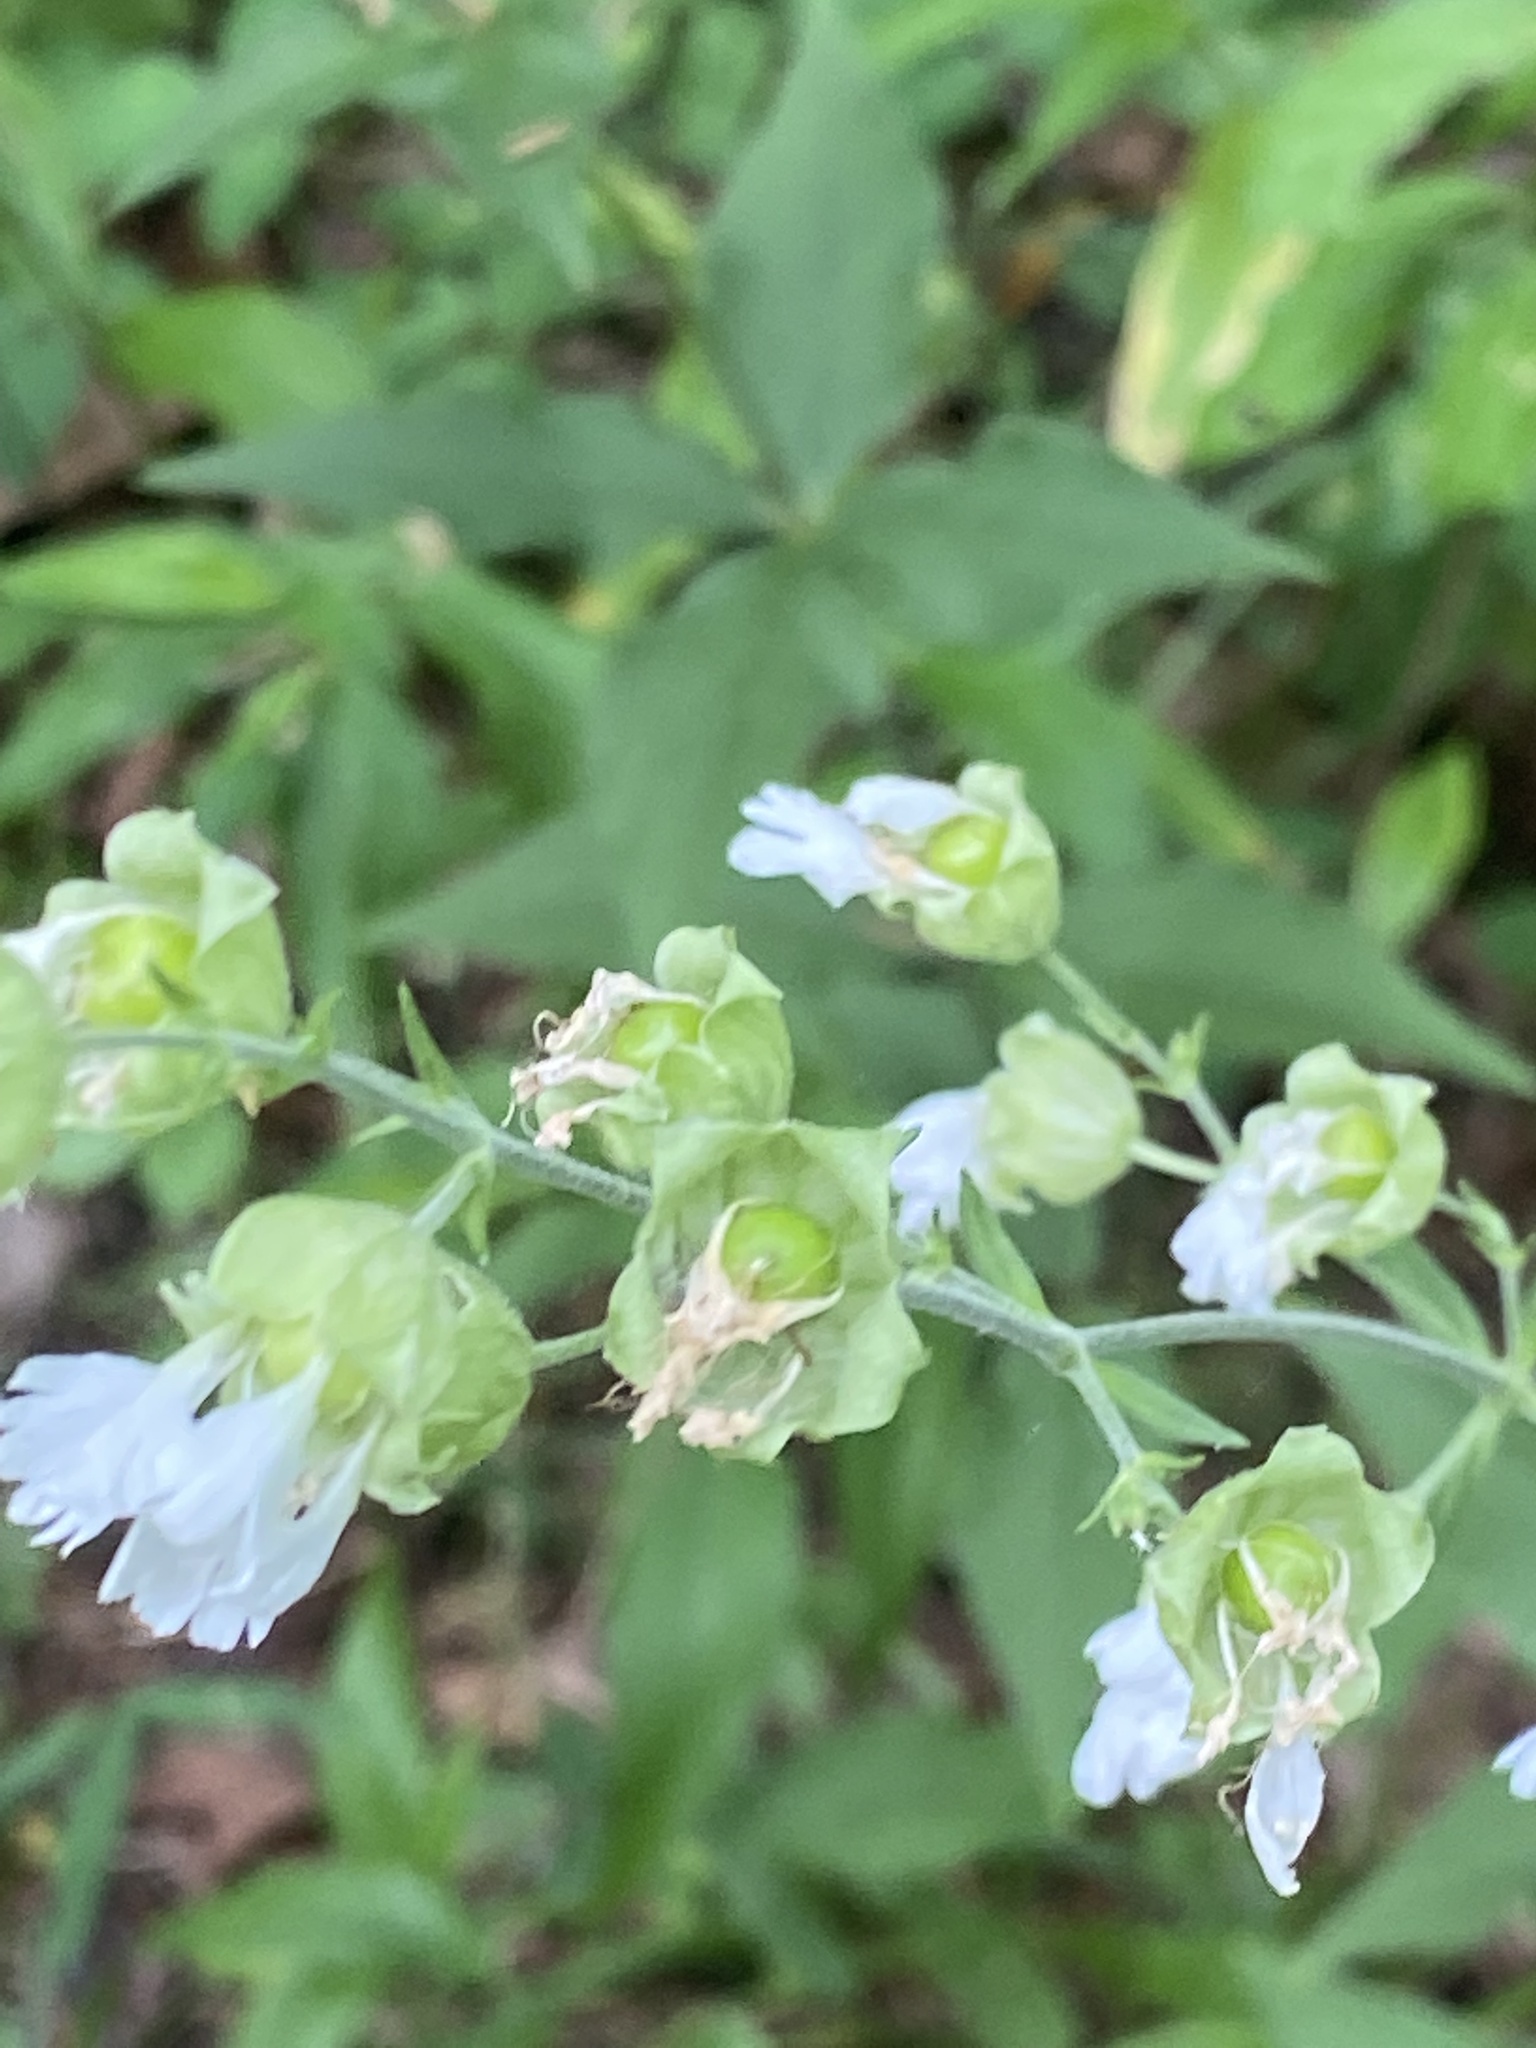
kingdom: Plantae
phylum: Tracheophyta
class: Magnoliopsida
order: Caryophyllales
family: Caryophyllaceae
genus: Silene
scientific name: Silene stellata
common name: Starry campion
